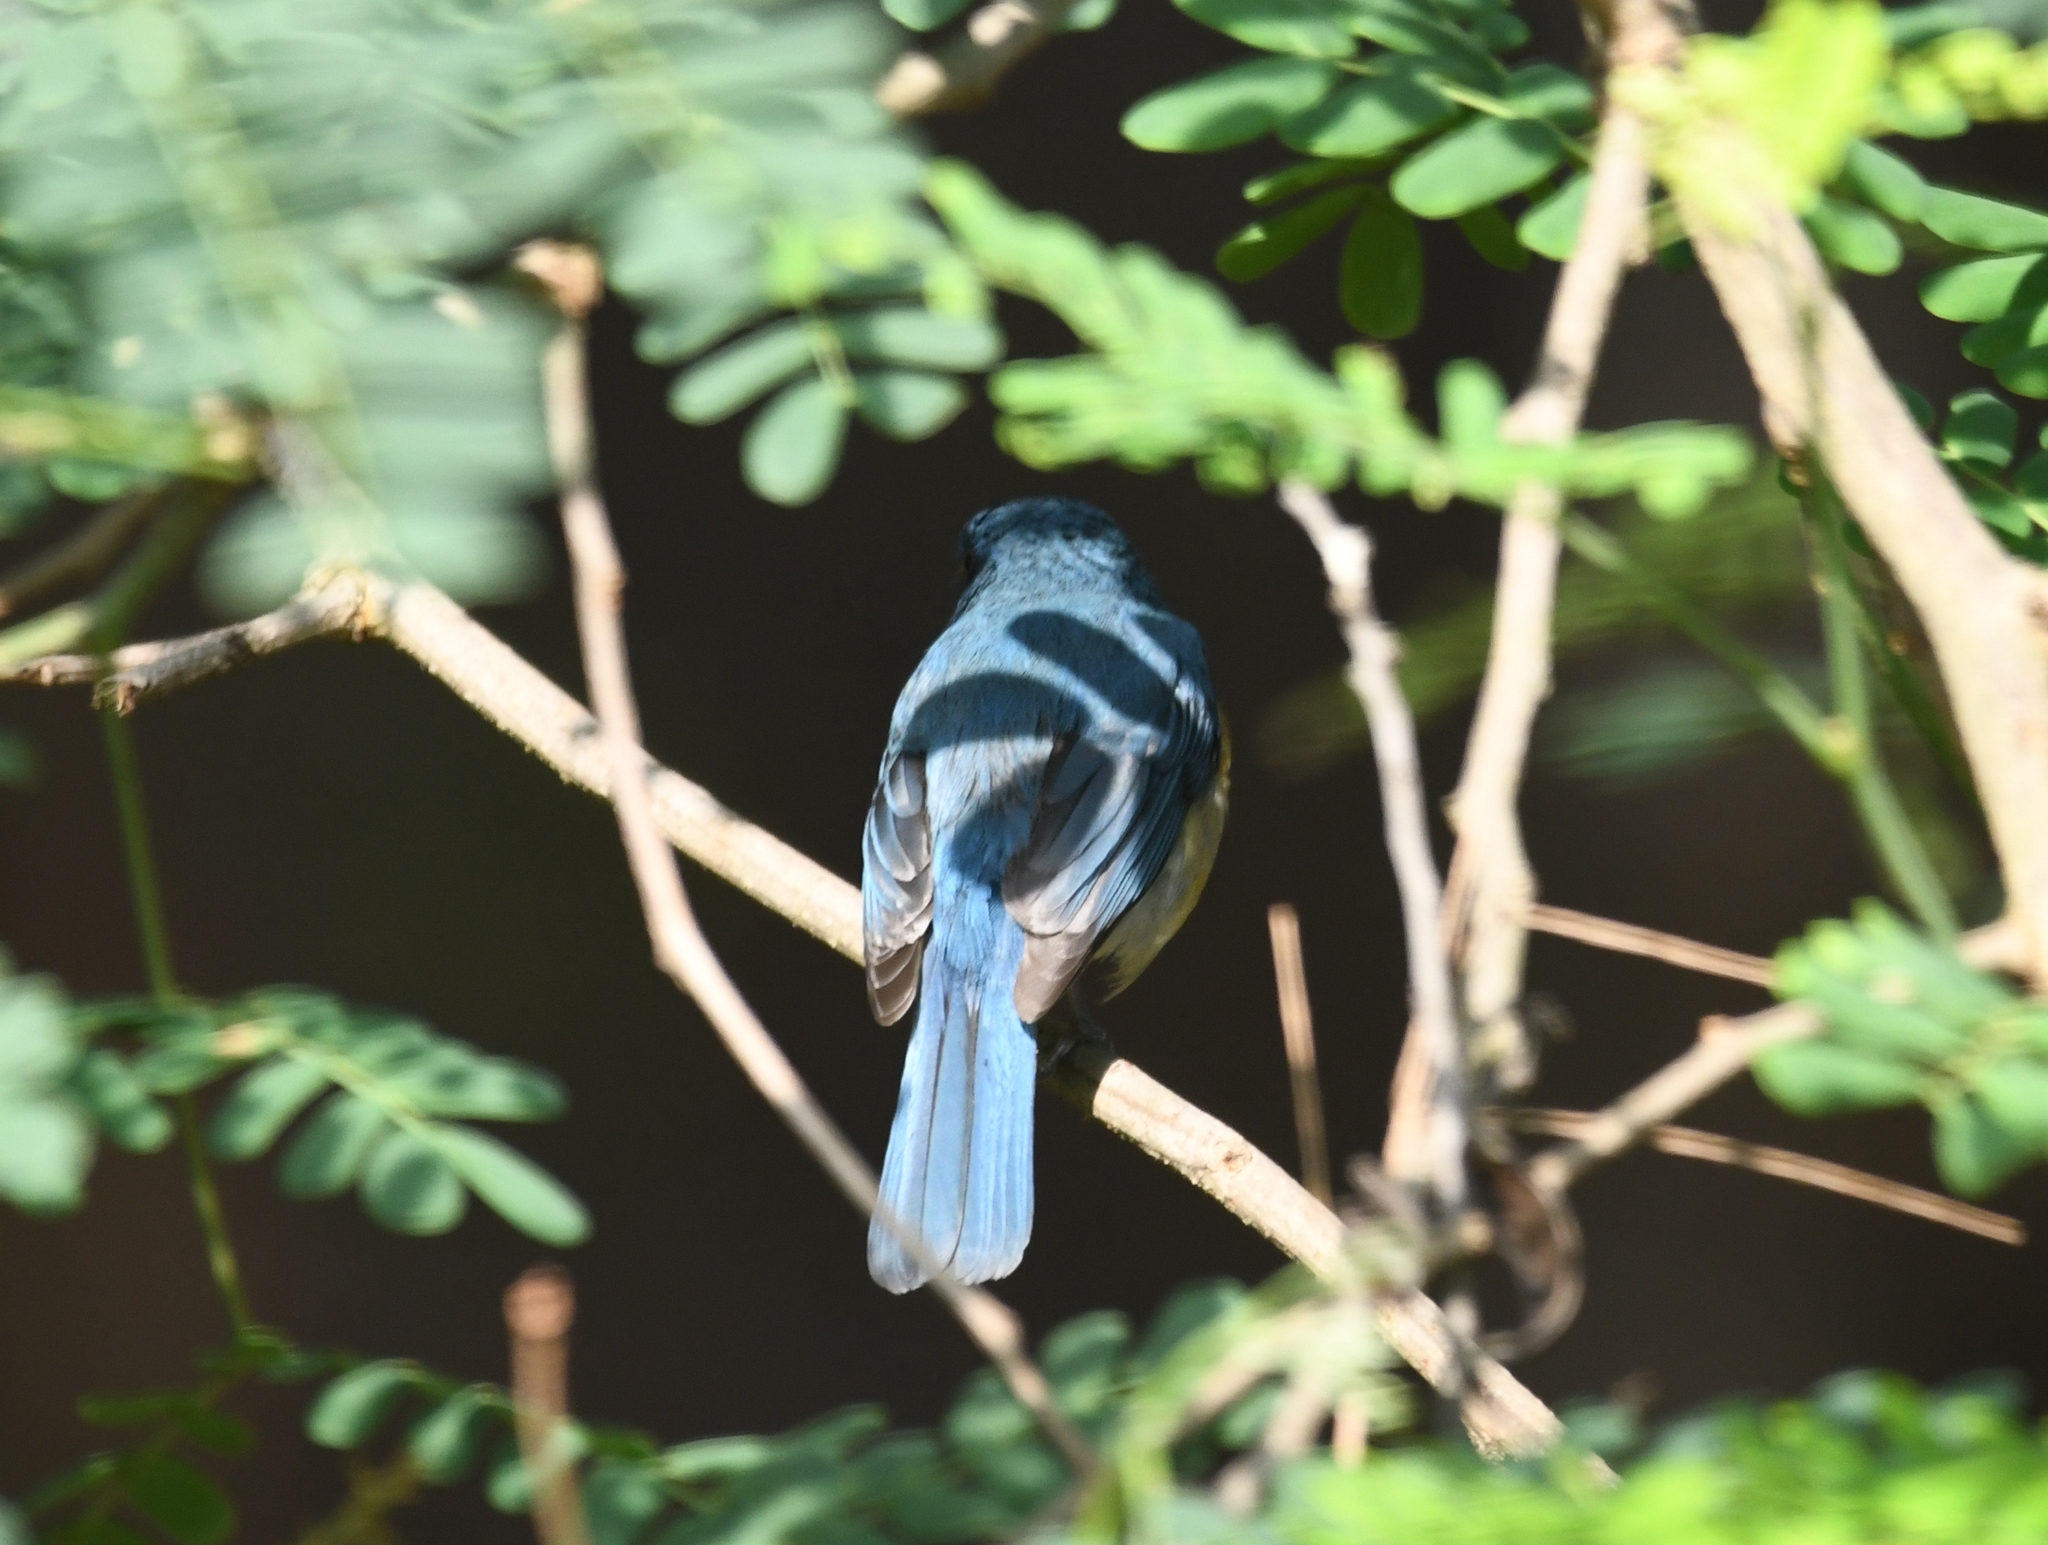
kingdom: Animalia
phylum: Chordata
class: Aves
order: Passeriformes
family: Muscicapidae
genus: Cyornis
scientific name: Cyornis tickelliae
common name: Tickell's blue flycatcher
